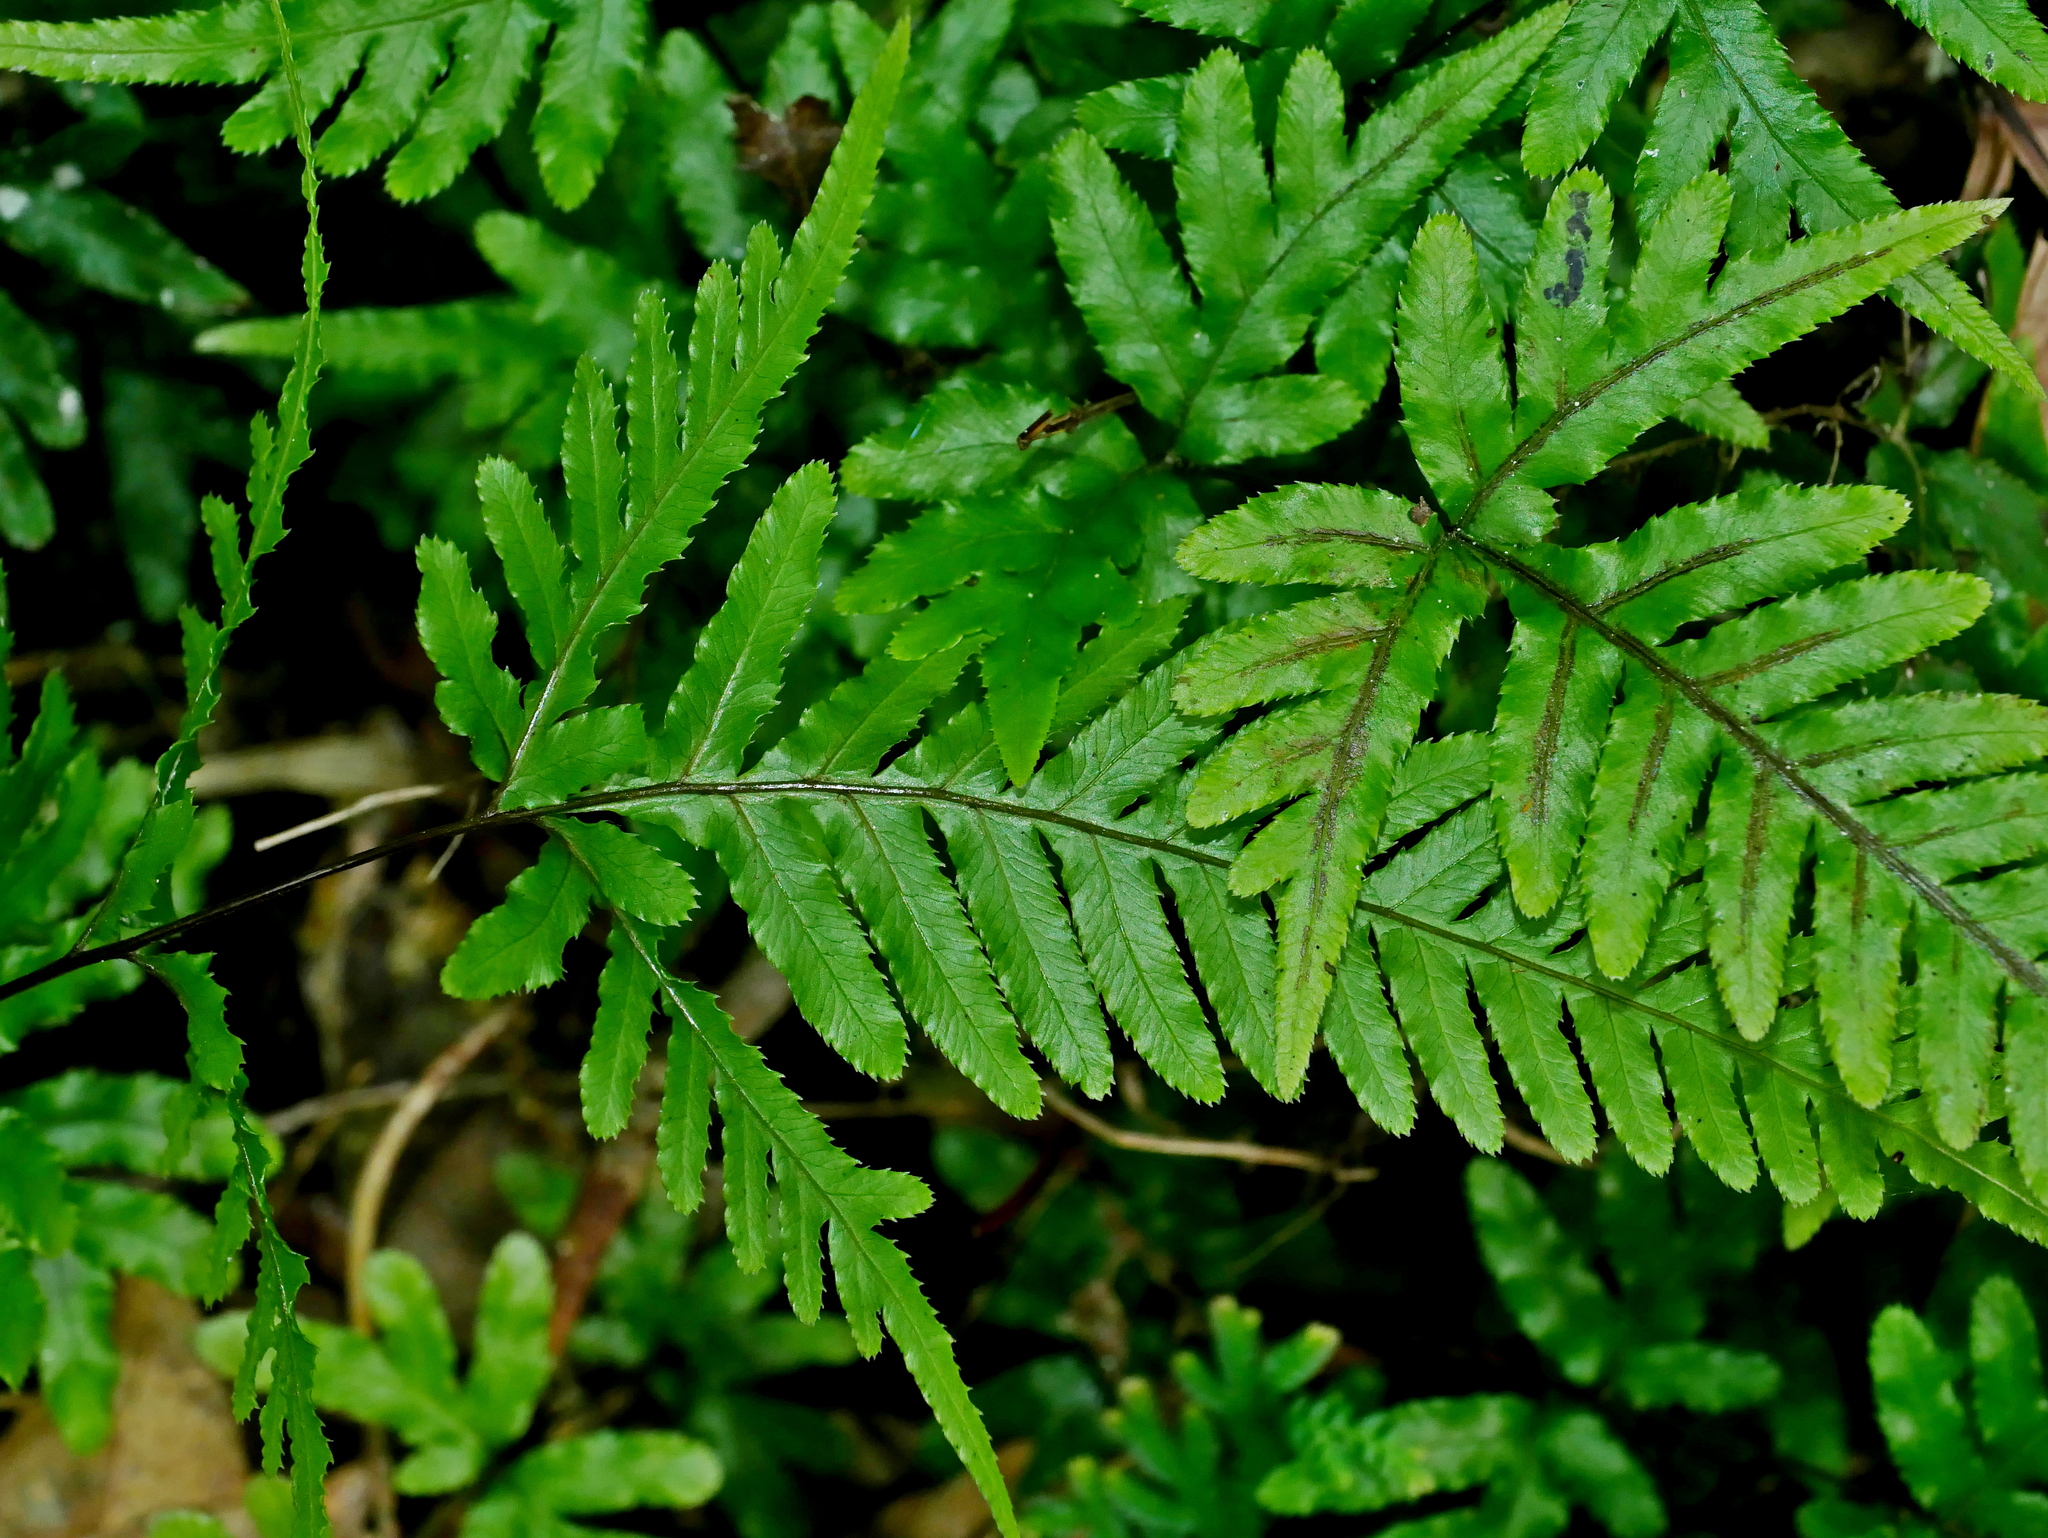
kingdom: Plantae
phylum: Tracheophyta
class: Polypodiopsida
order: Polypodiales
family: Pteridaceae
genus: Pteris
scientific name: Pteris dispar
